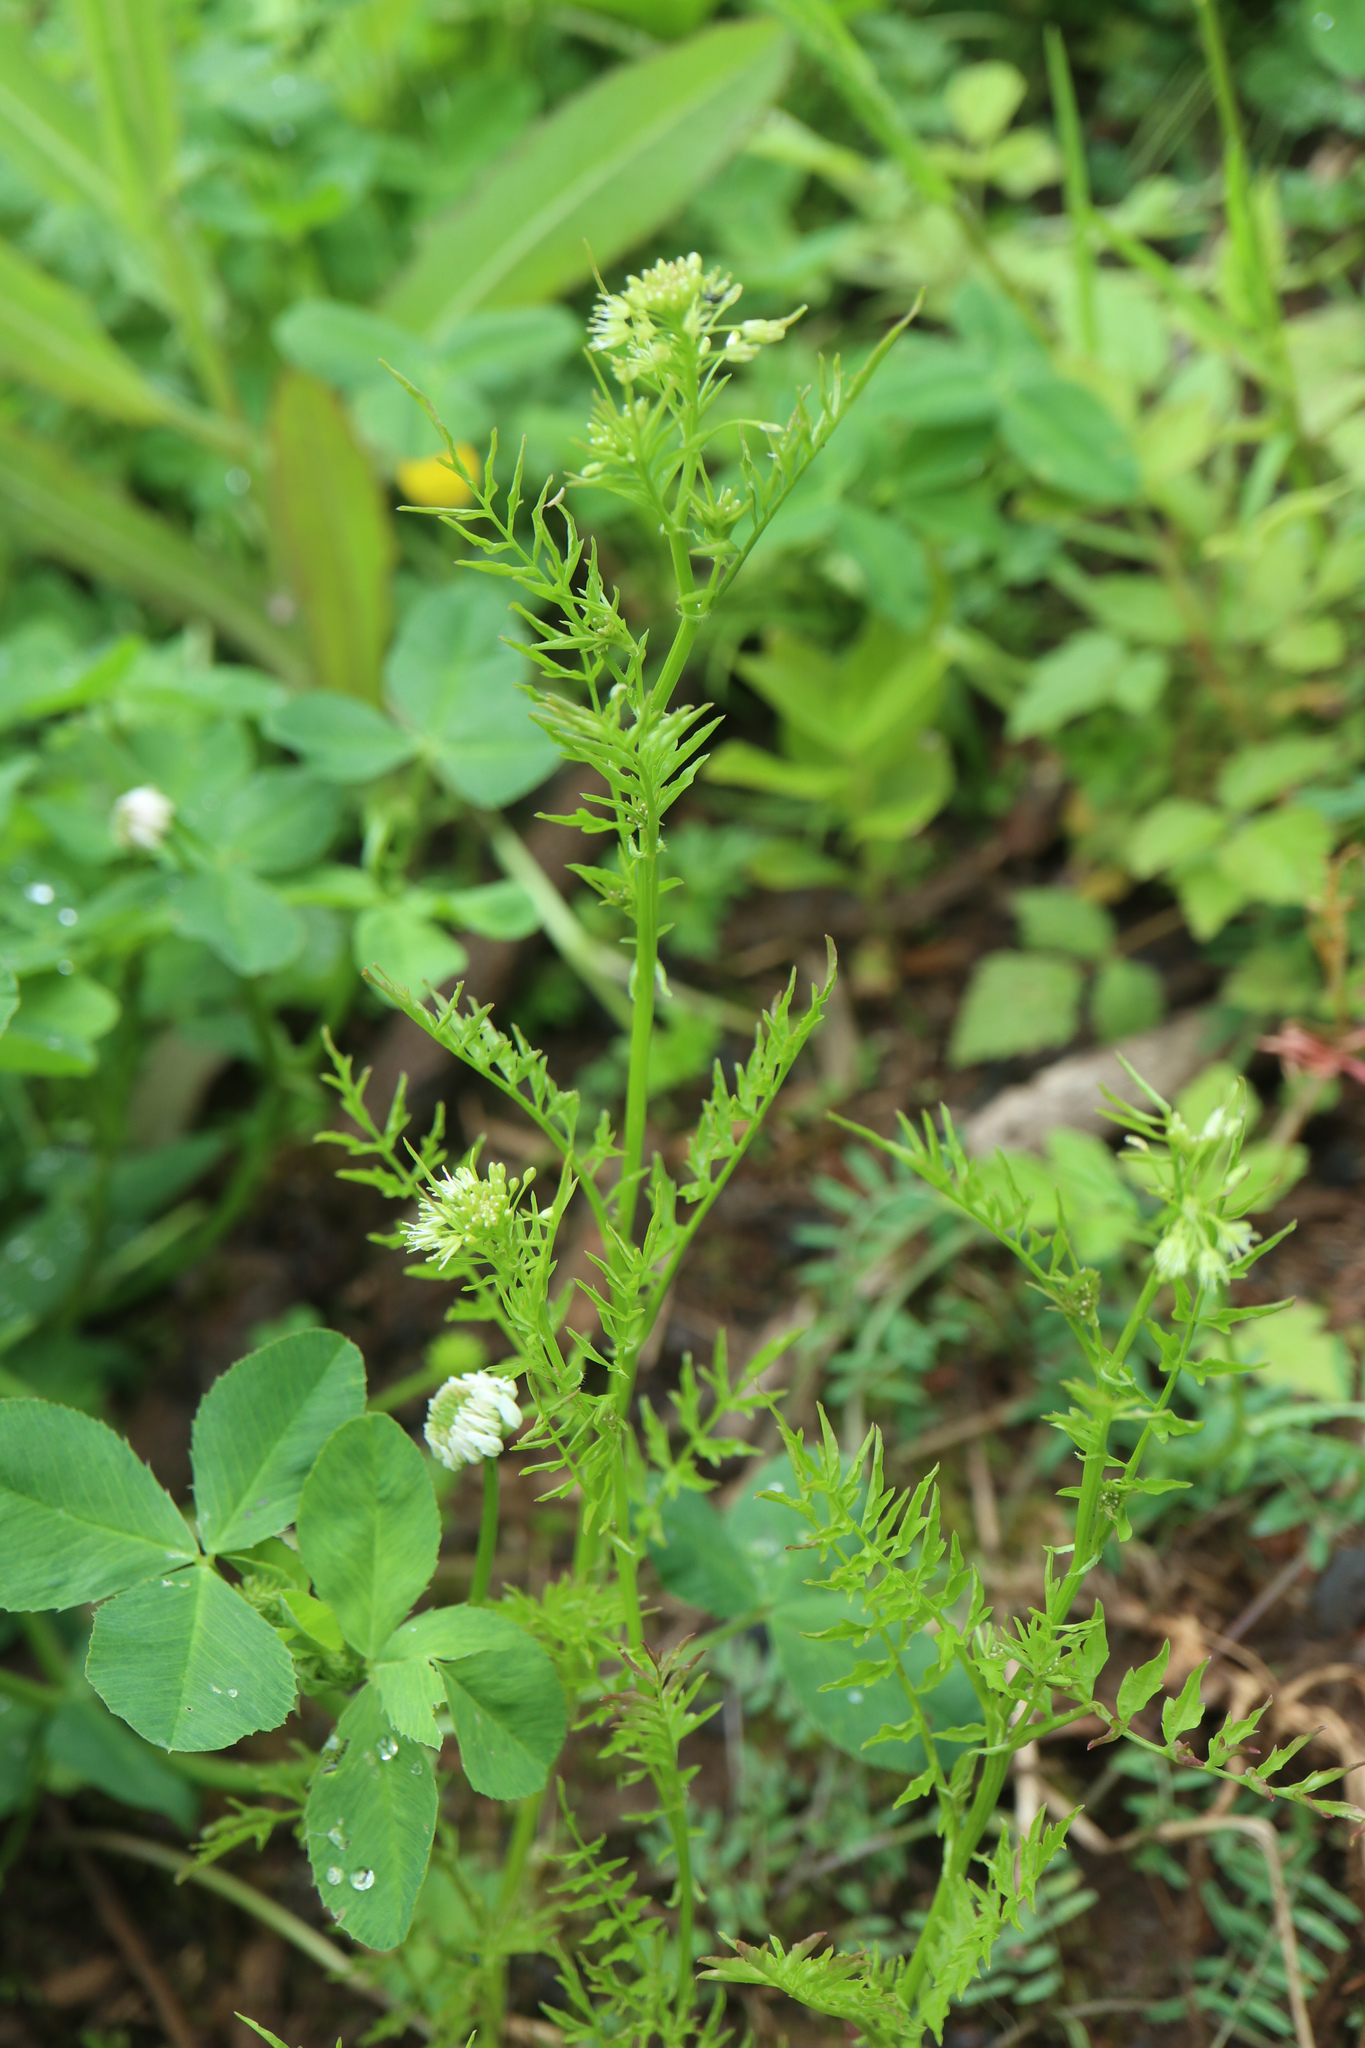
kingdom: Plantae
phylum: Tracheophyta
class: Magnoliopsida
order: Brassicales
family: Brassicaceae
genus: Cardamine
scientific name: Cardamine impatiens
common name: Narrow-leaved bitter-cress
